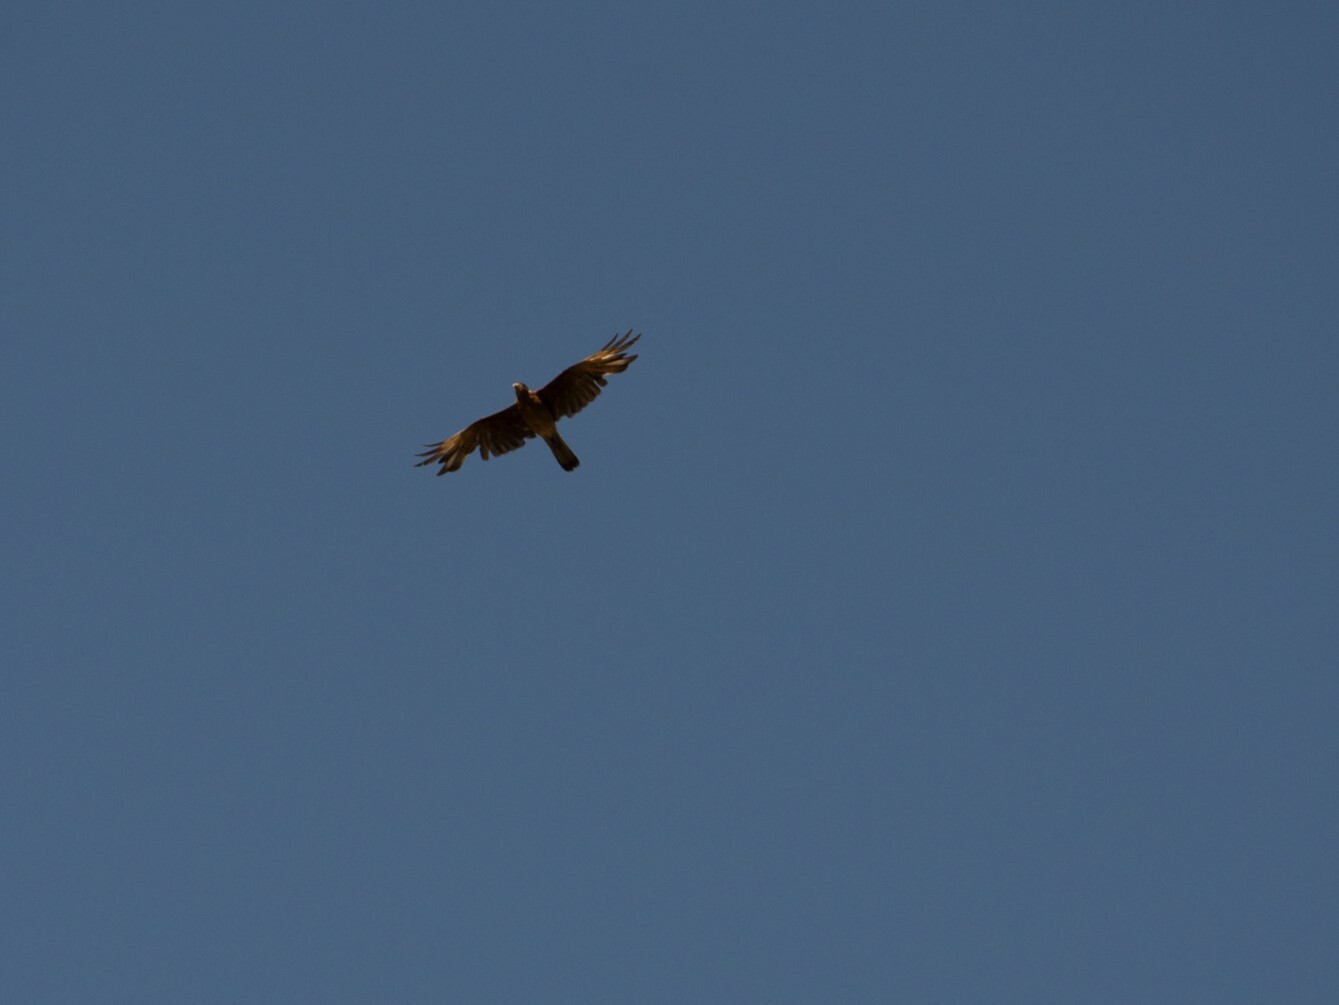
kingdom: Animalia
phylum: Chordata
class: Aves
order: Falconiformes
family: Falconidae
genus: Daptrius
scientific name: Daptrius
